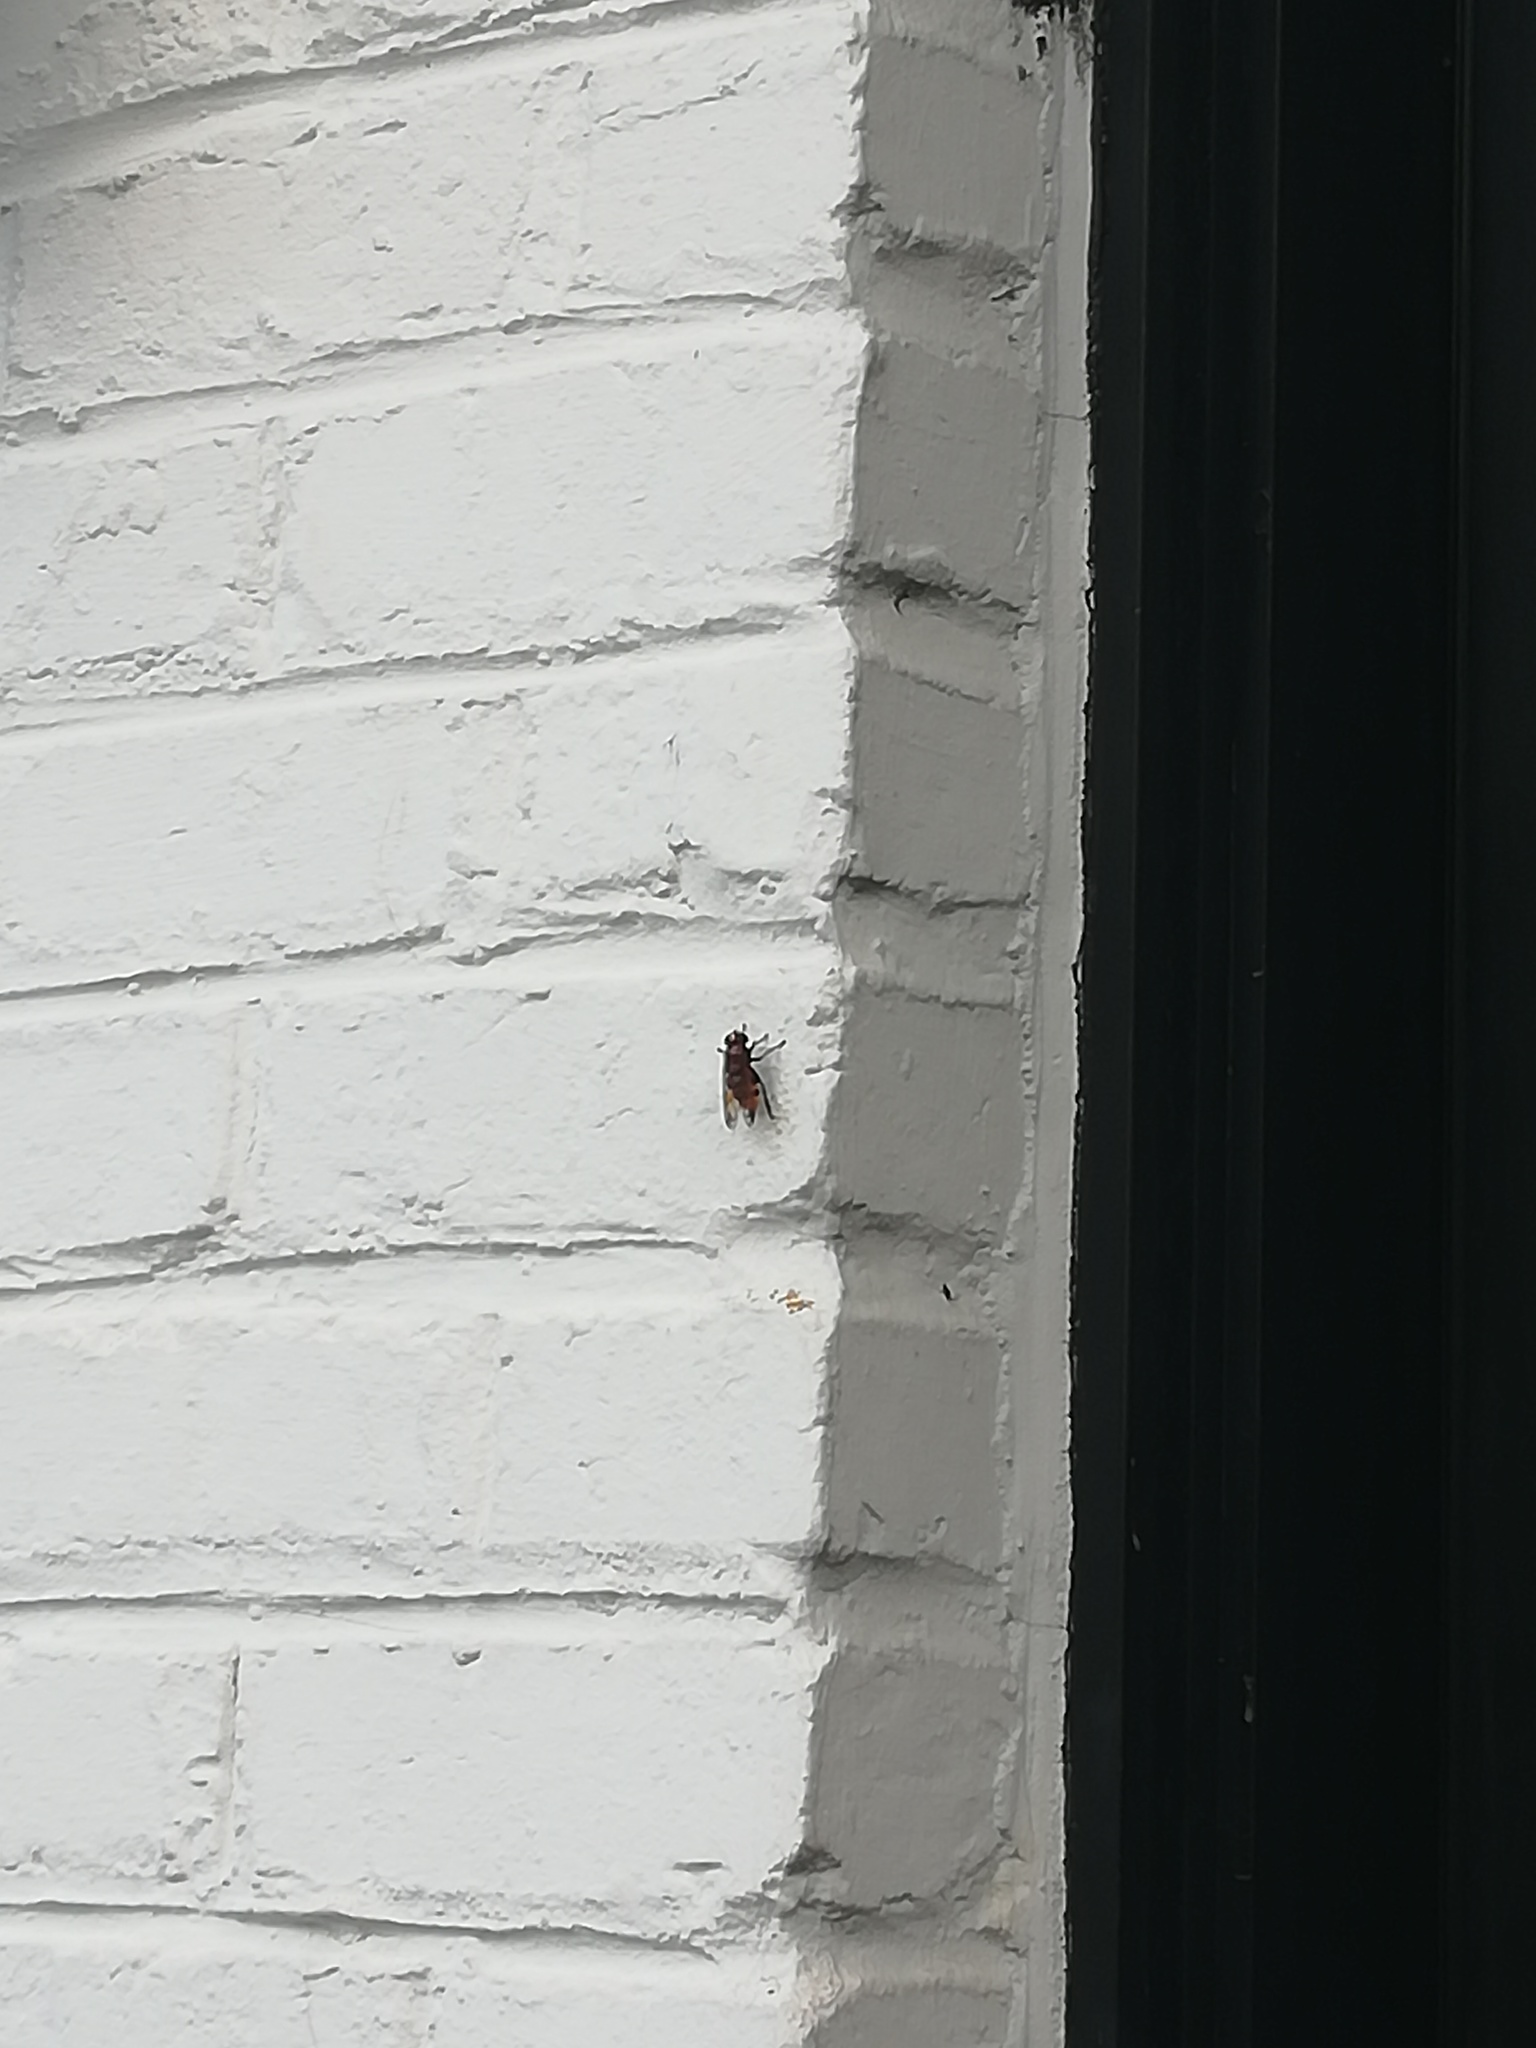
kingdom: Animalia
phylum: Arthropoda
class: Insecta
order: Diptera
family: Syrphidae
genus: Volucella
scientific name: Volucella
